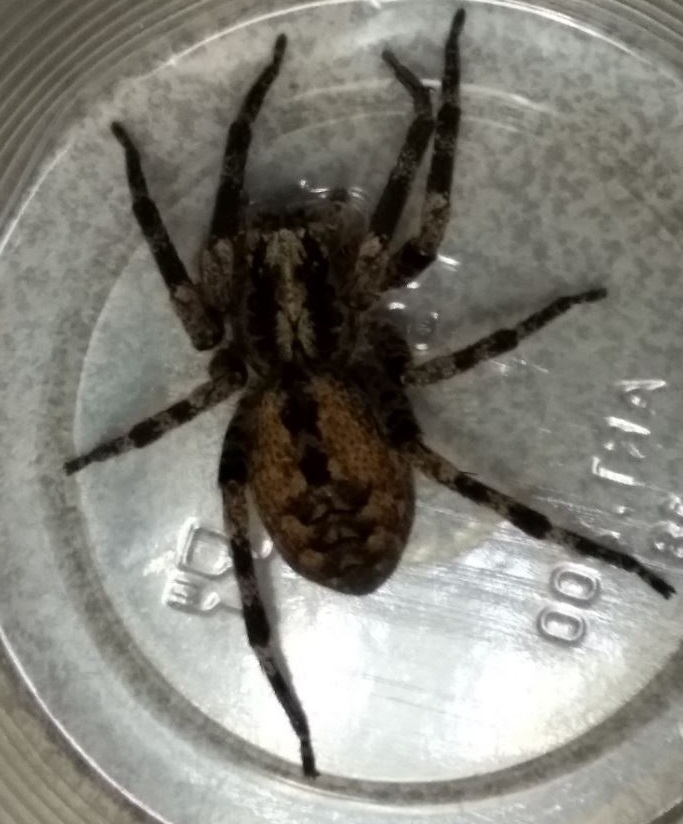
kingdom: Animalia
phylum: Arthropoda
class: Arachnida
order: Araneae
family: Zoropsidae
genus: Zoropsis
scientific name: Zoropsis spinimana
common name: Zoropsid spider
